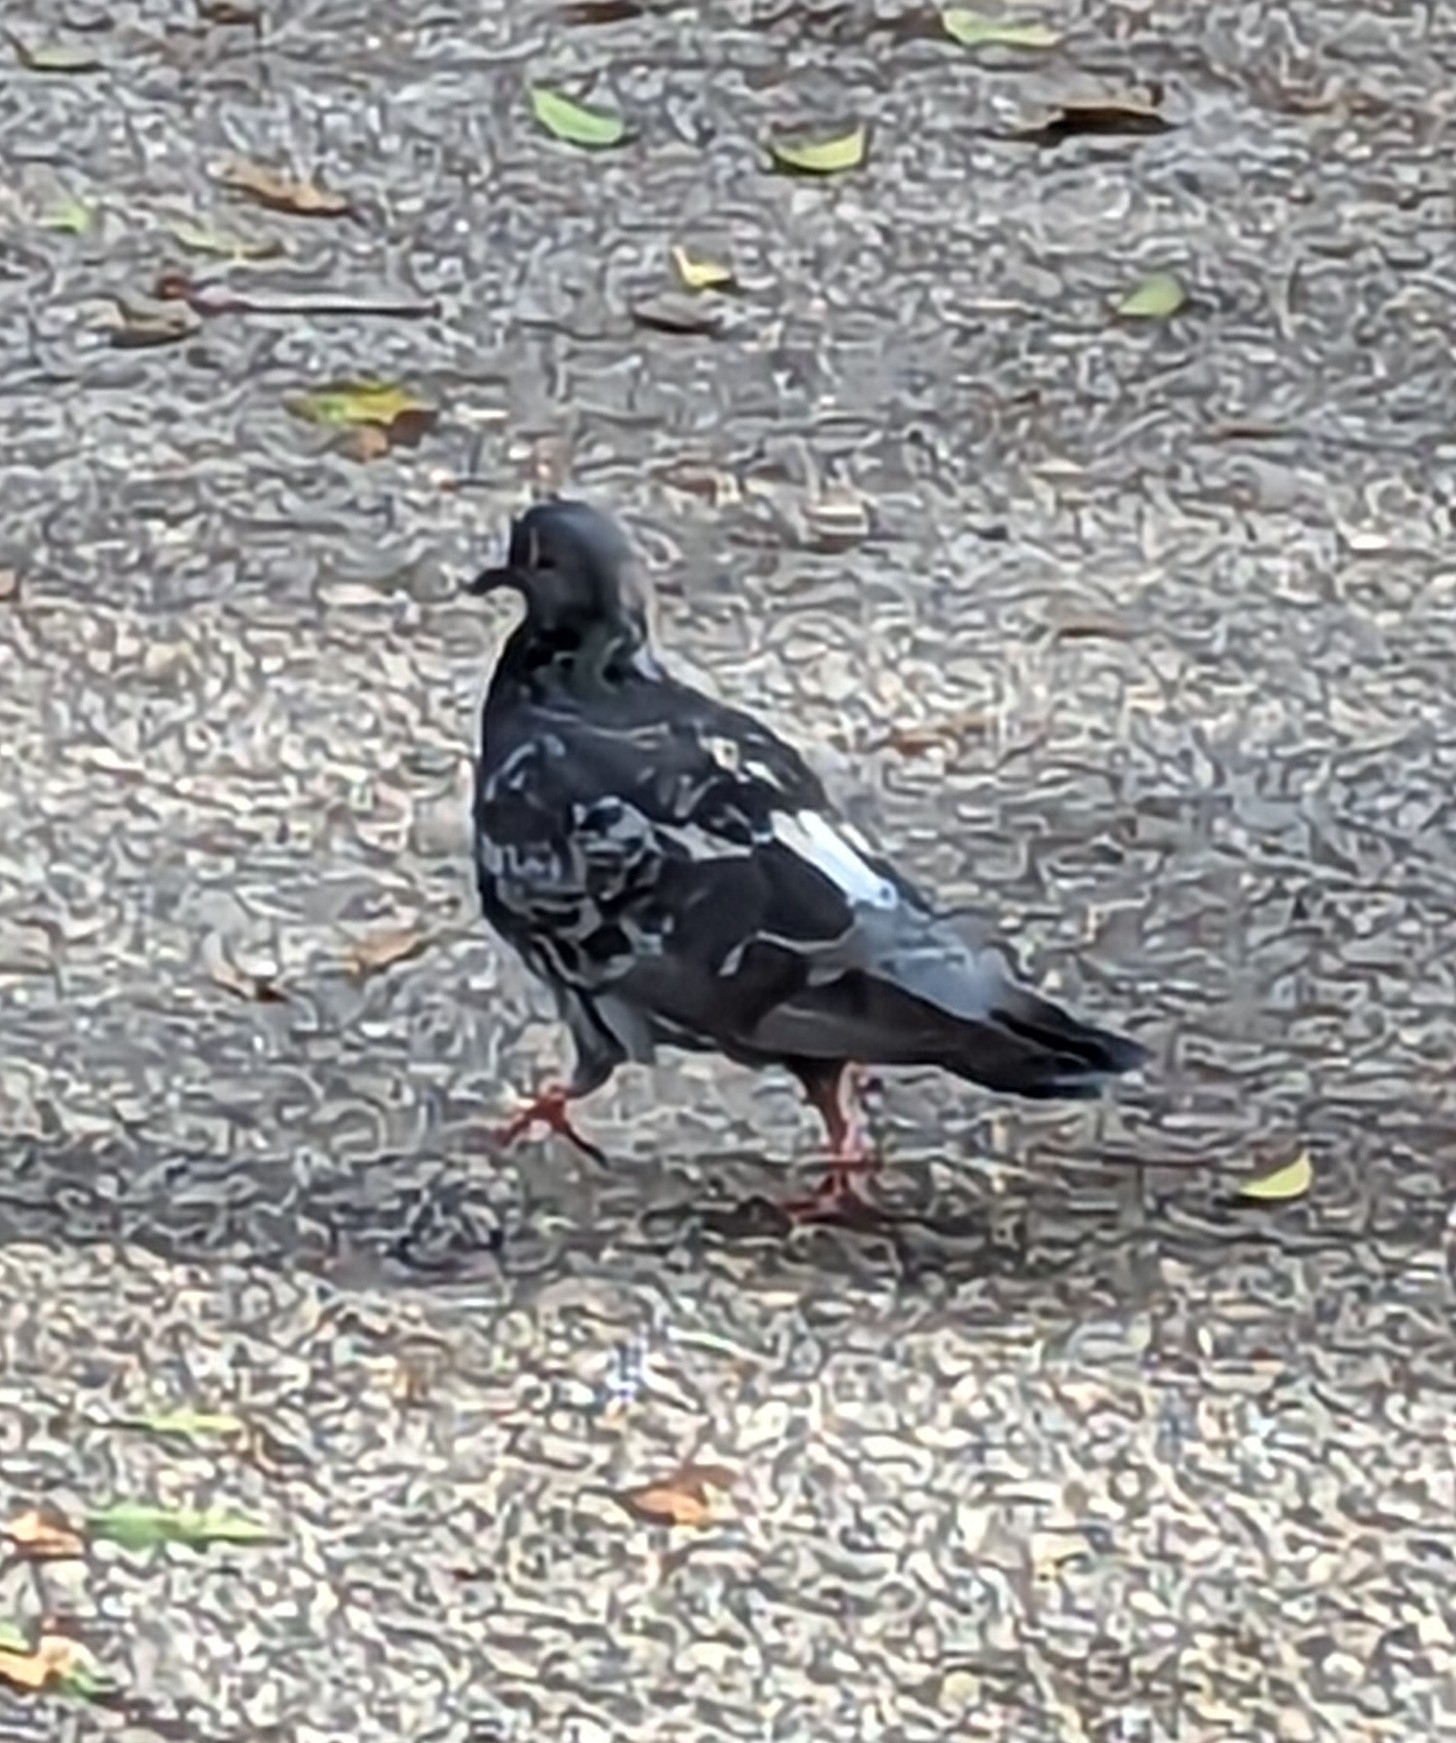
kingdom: Animalia
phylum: Chordata
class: Aves
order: Columbiformes
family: Columbidae
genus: Columba
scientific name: Columba livia
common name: Rock pigeon
